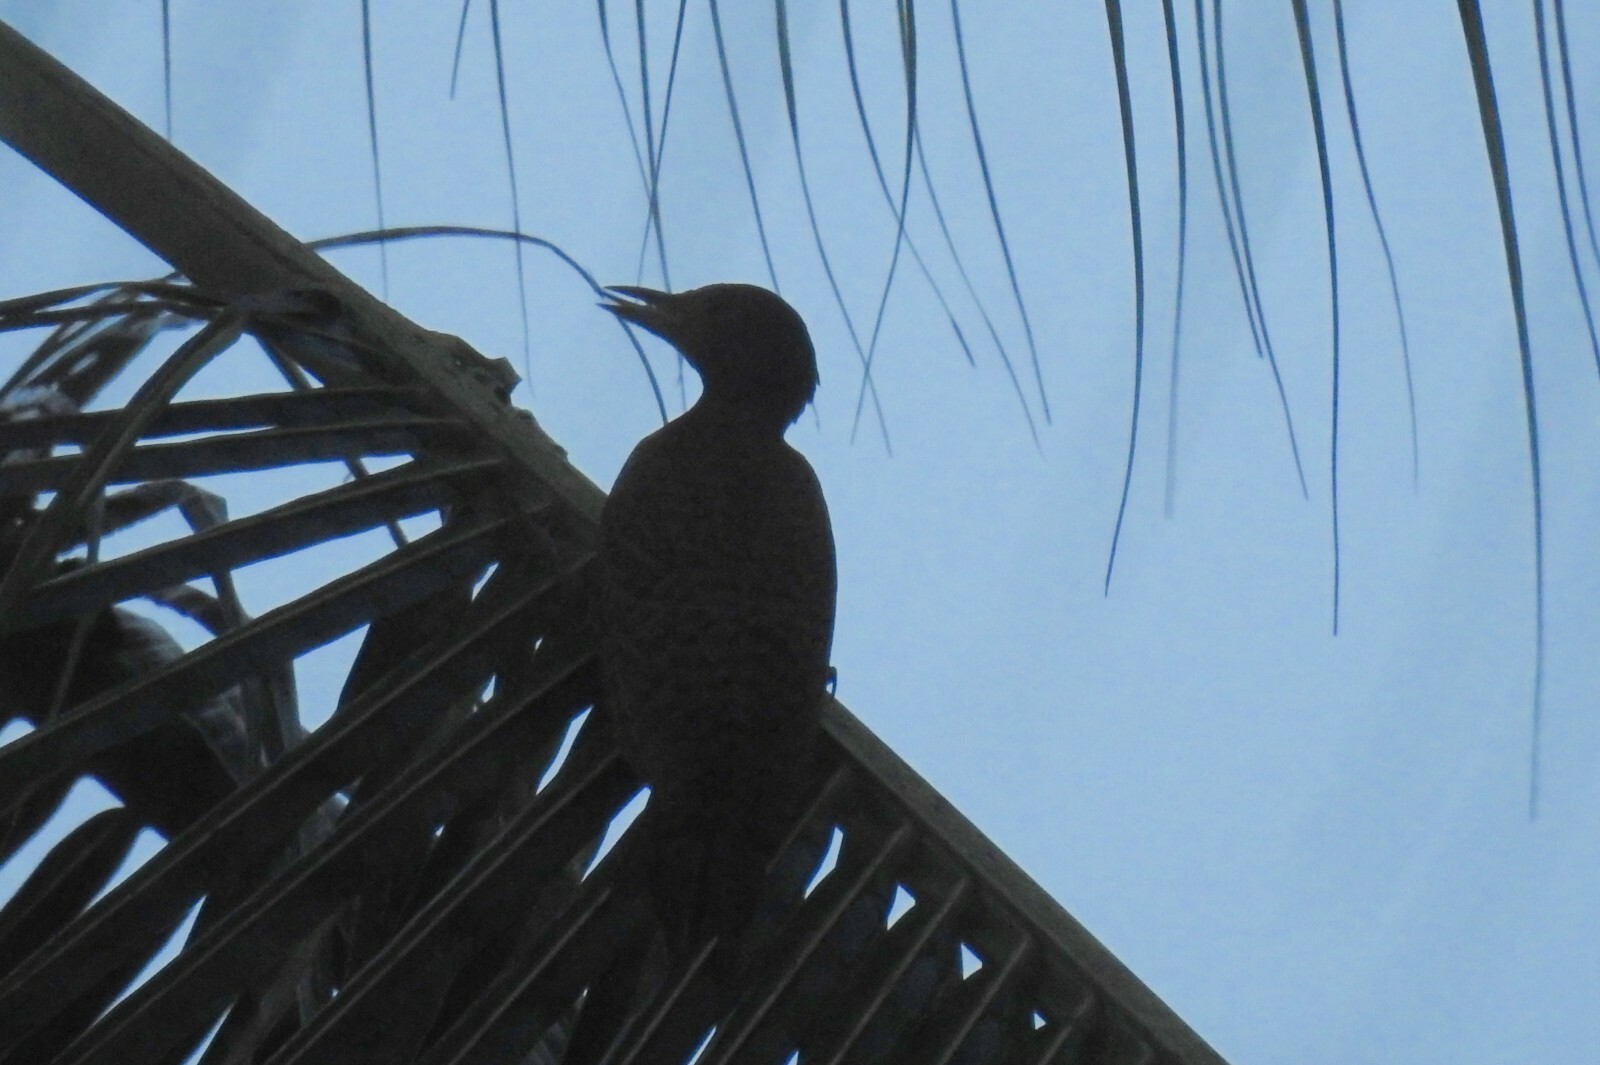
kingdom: Animalia
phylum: Chordata
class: Aves
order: Piciformes
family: Picidae
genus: Micropternus
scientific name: Micropternus brachyurus
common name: Rufous woodpecker
